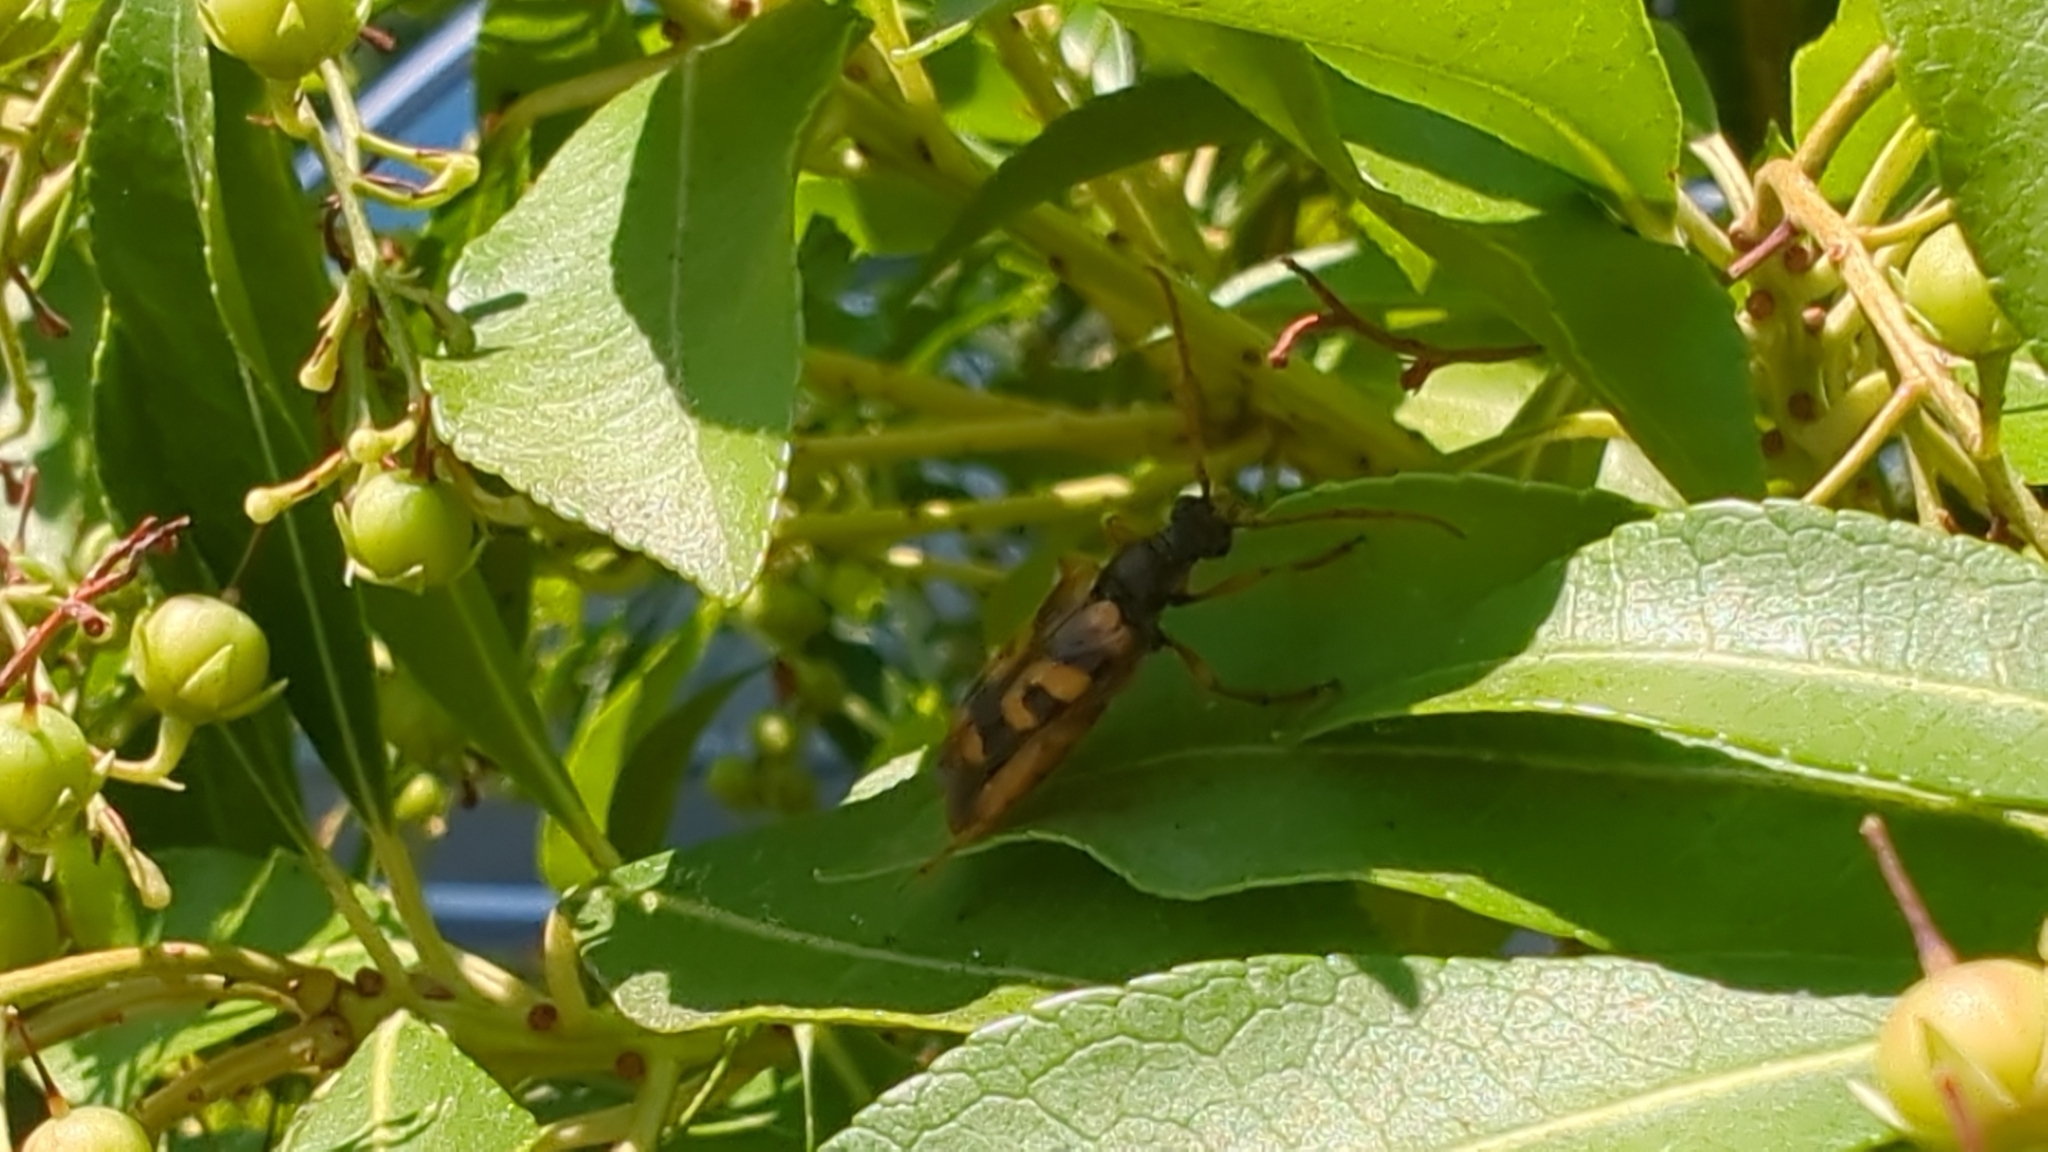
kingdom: Animalia
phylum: Arthropoda
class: Insecta
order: Coleoptera
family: Cerambycidae
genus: Xestoleptura
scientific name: Xestoleptura crassipes
